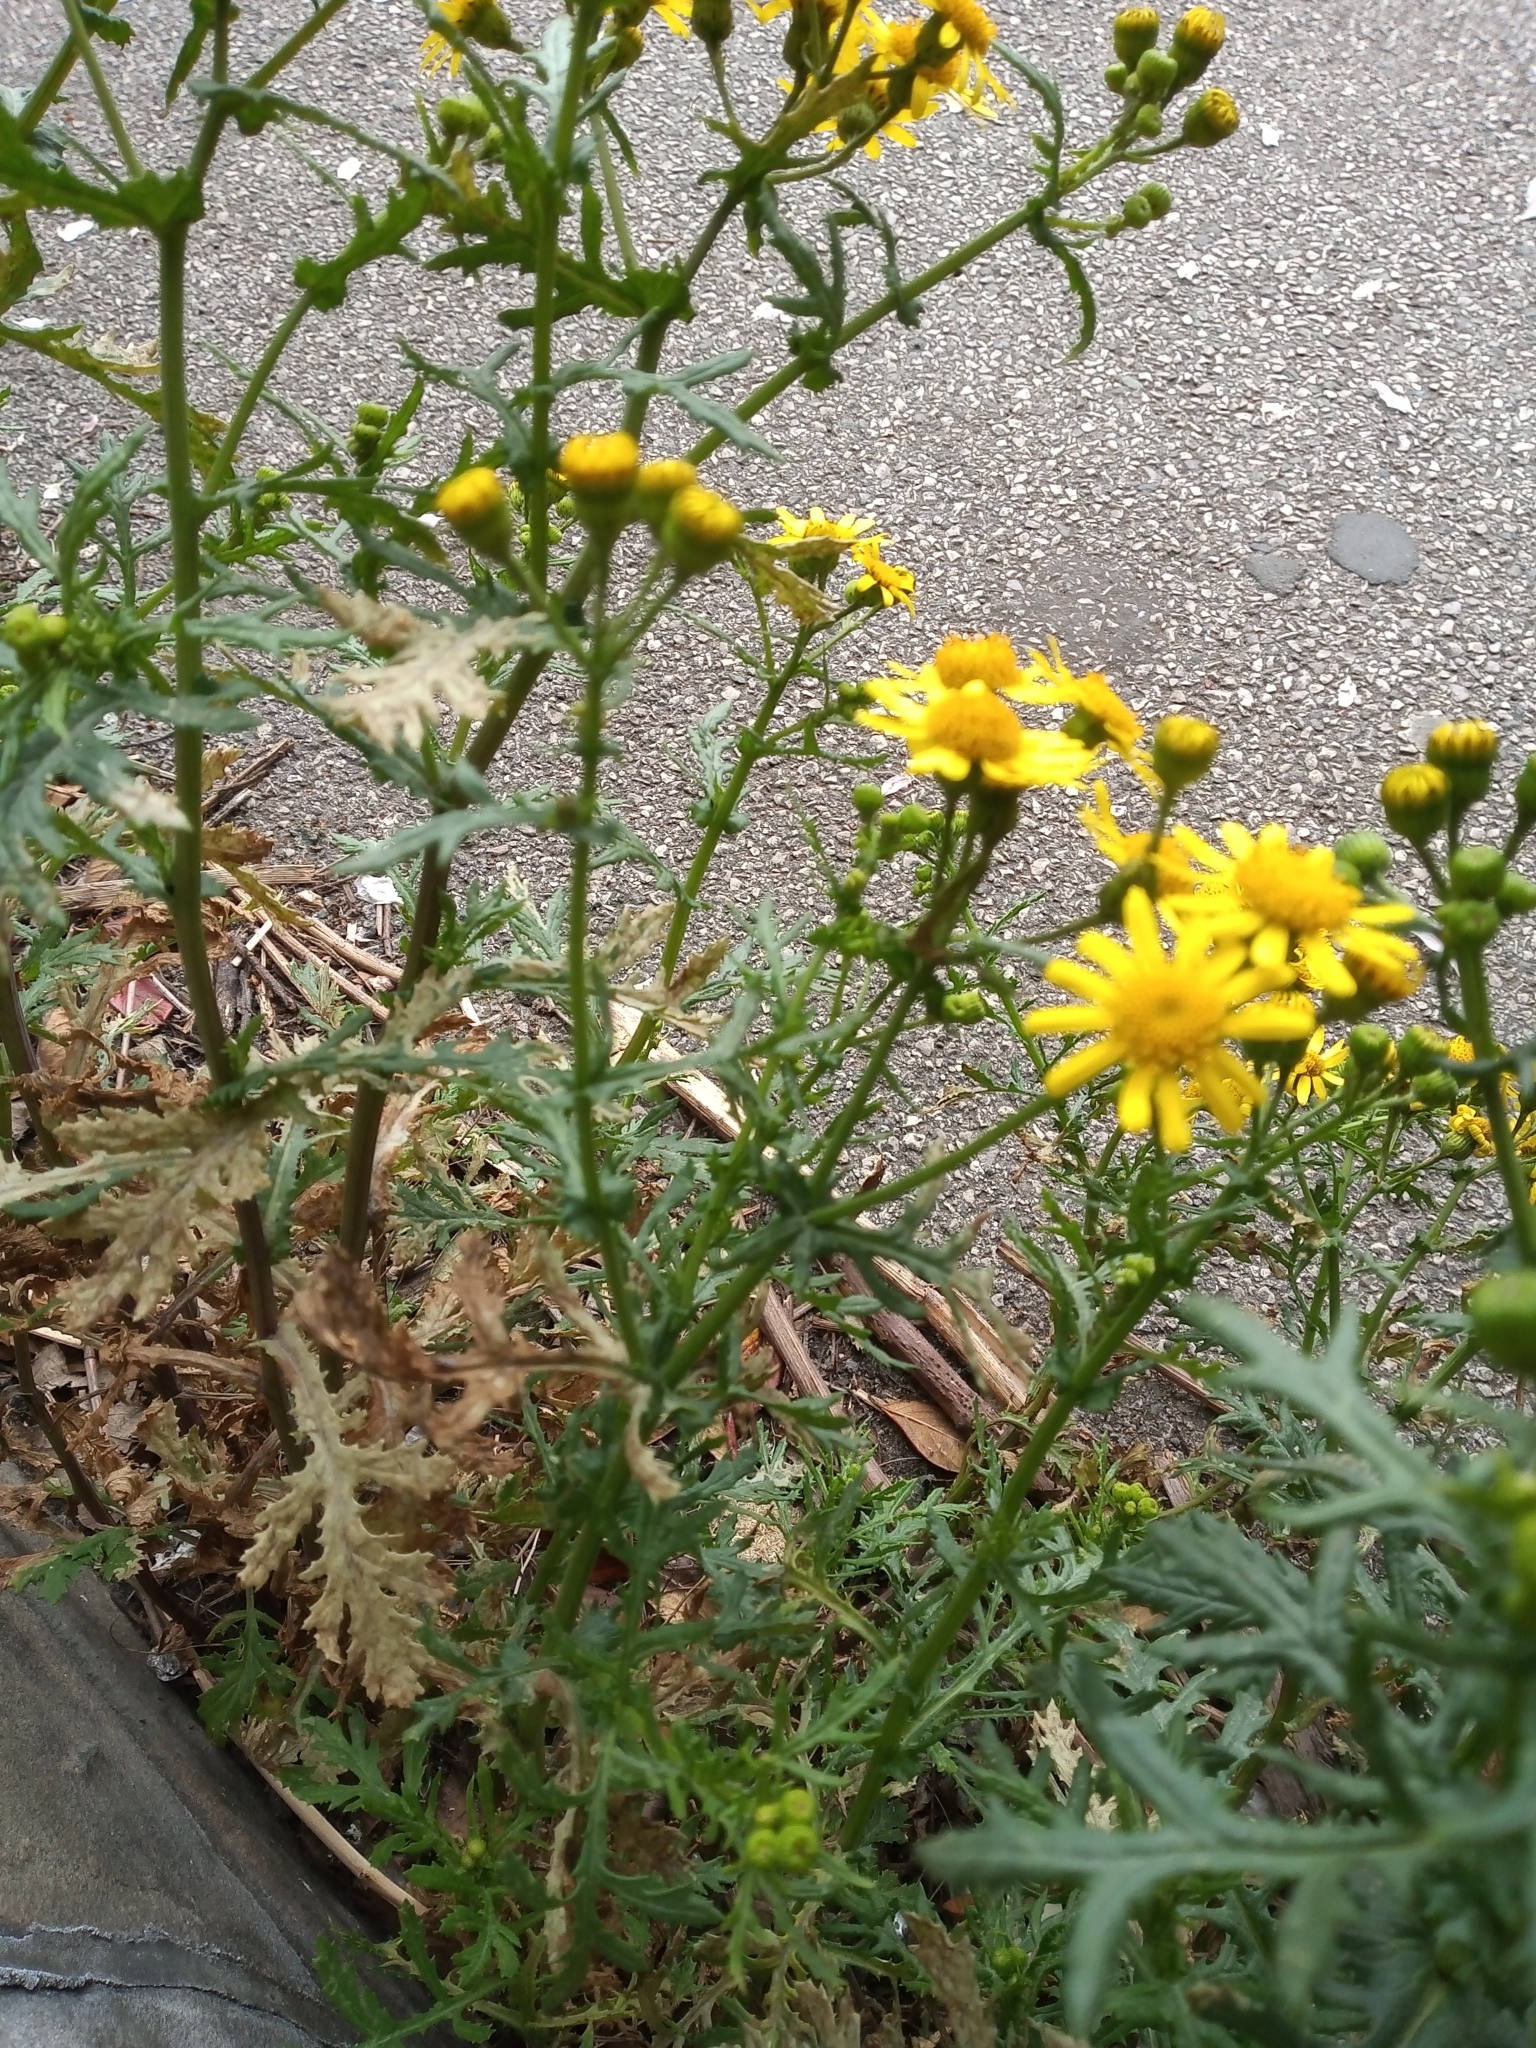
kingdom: Plantae
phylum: Tracheophyta
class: Magnoliopsida
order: Asterales
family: Asteraceae
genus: Senecio
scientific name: Senecio squalidus
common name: Oxford ragwort
